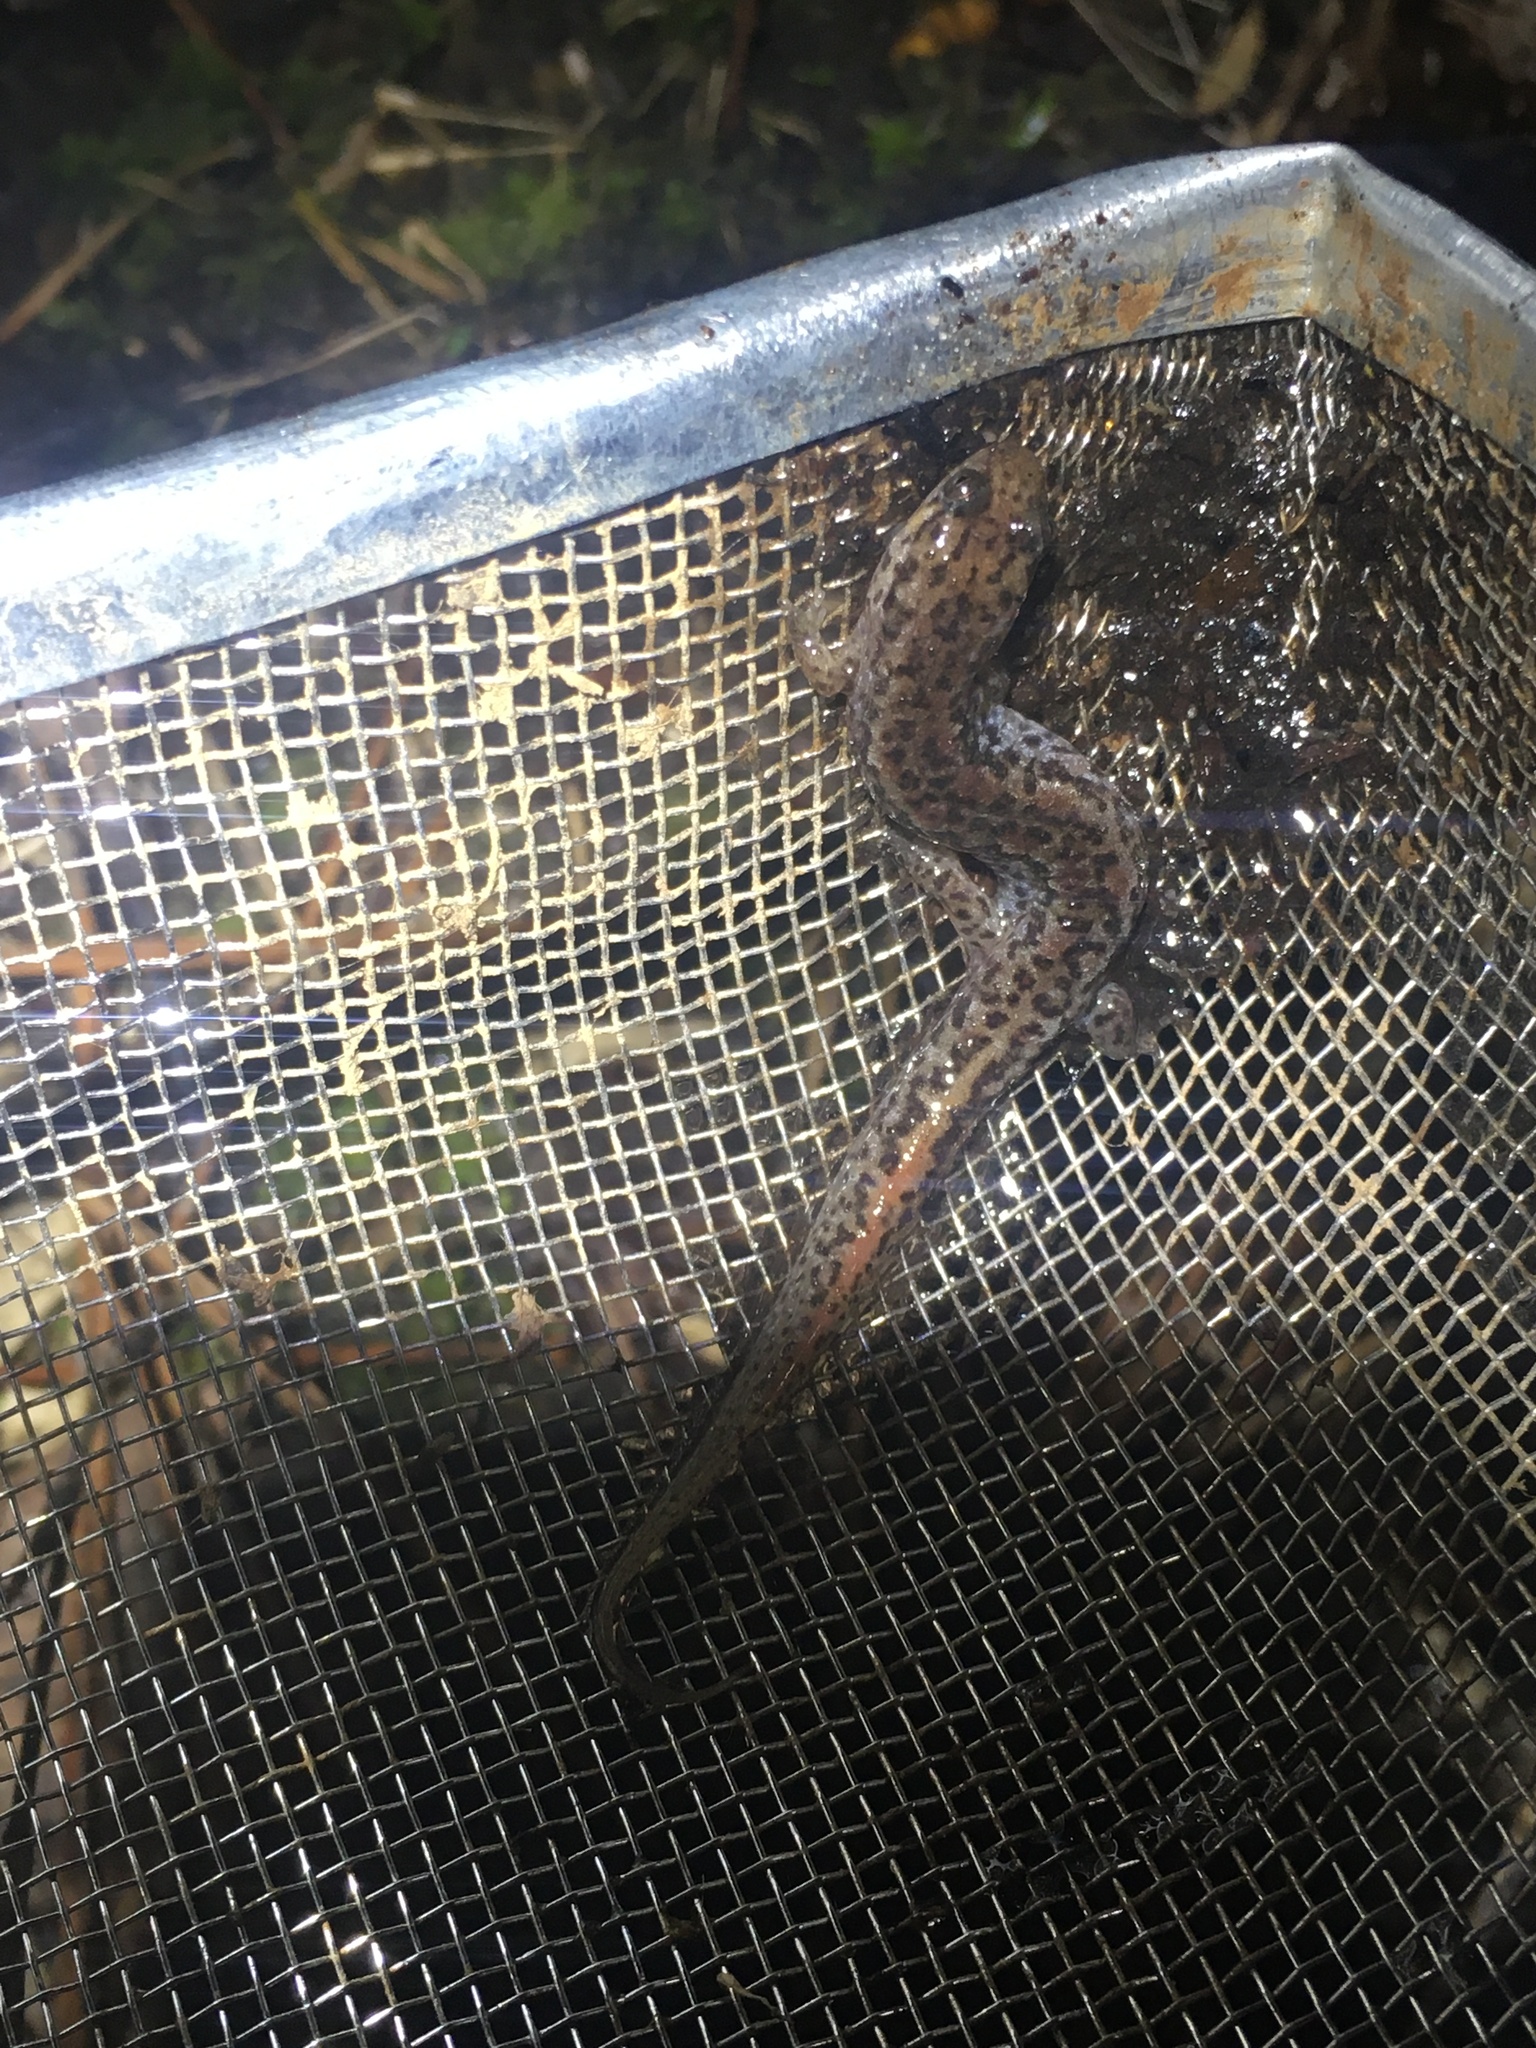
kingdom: Animalia
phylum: Chordata
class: Amphibia
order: Caudata
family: Plethodontidae
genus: Desmognathus
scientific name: Desmognathus
